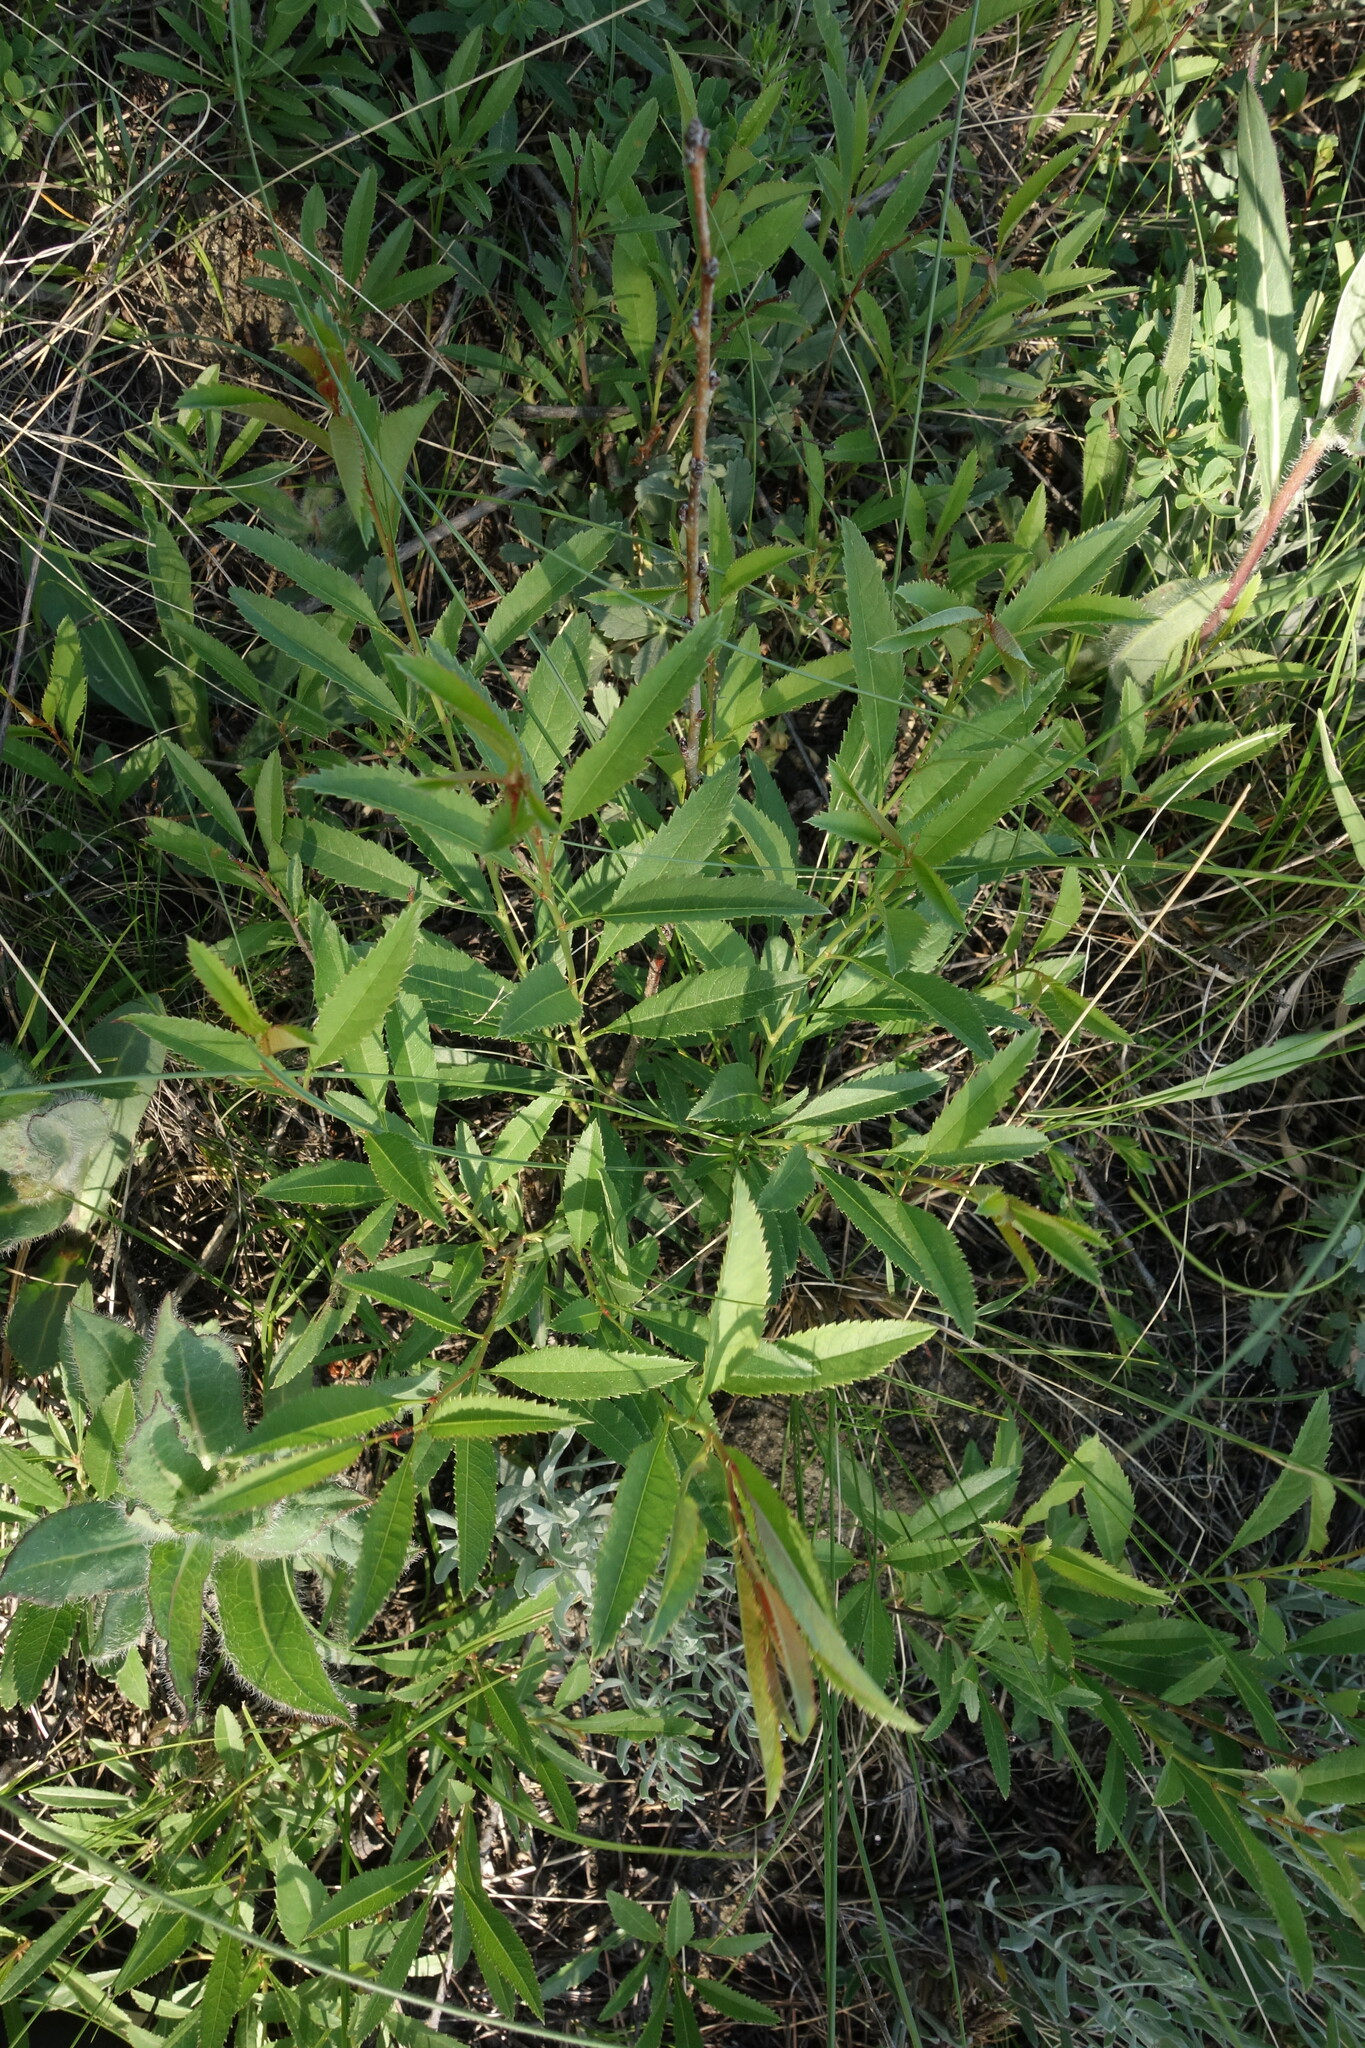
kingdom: Plantae
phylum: Tracheophyta
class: Magnoliopsida
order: Rosales
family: Rosaceae
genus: Prunus
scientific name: Prunus tenella
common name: Dwarf russian almond
